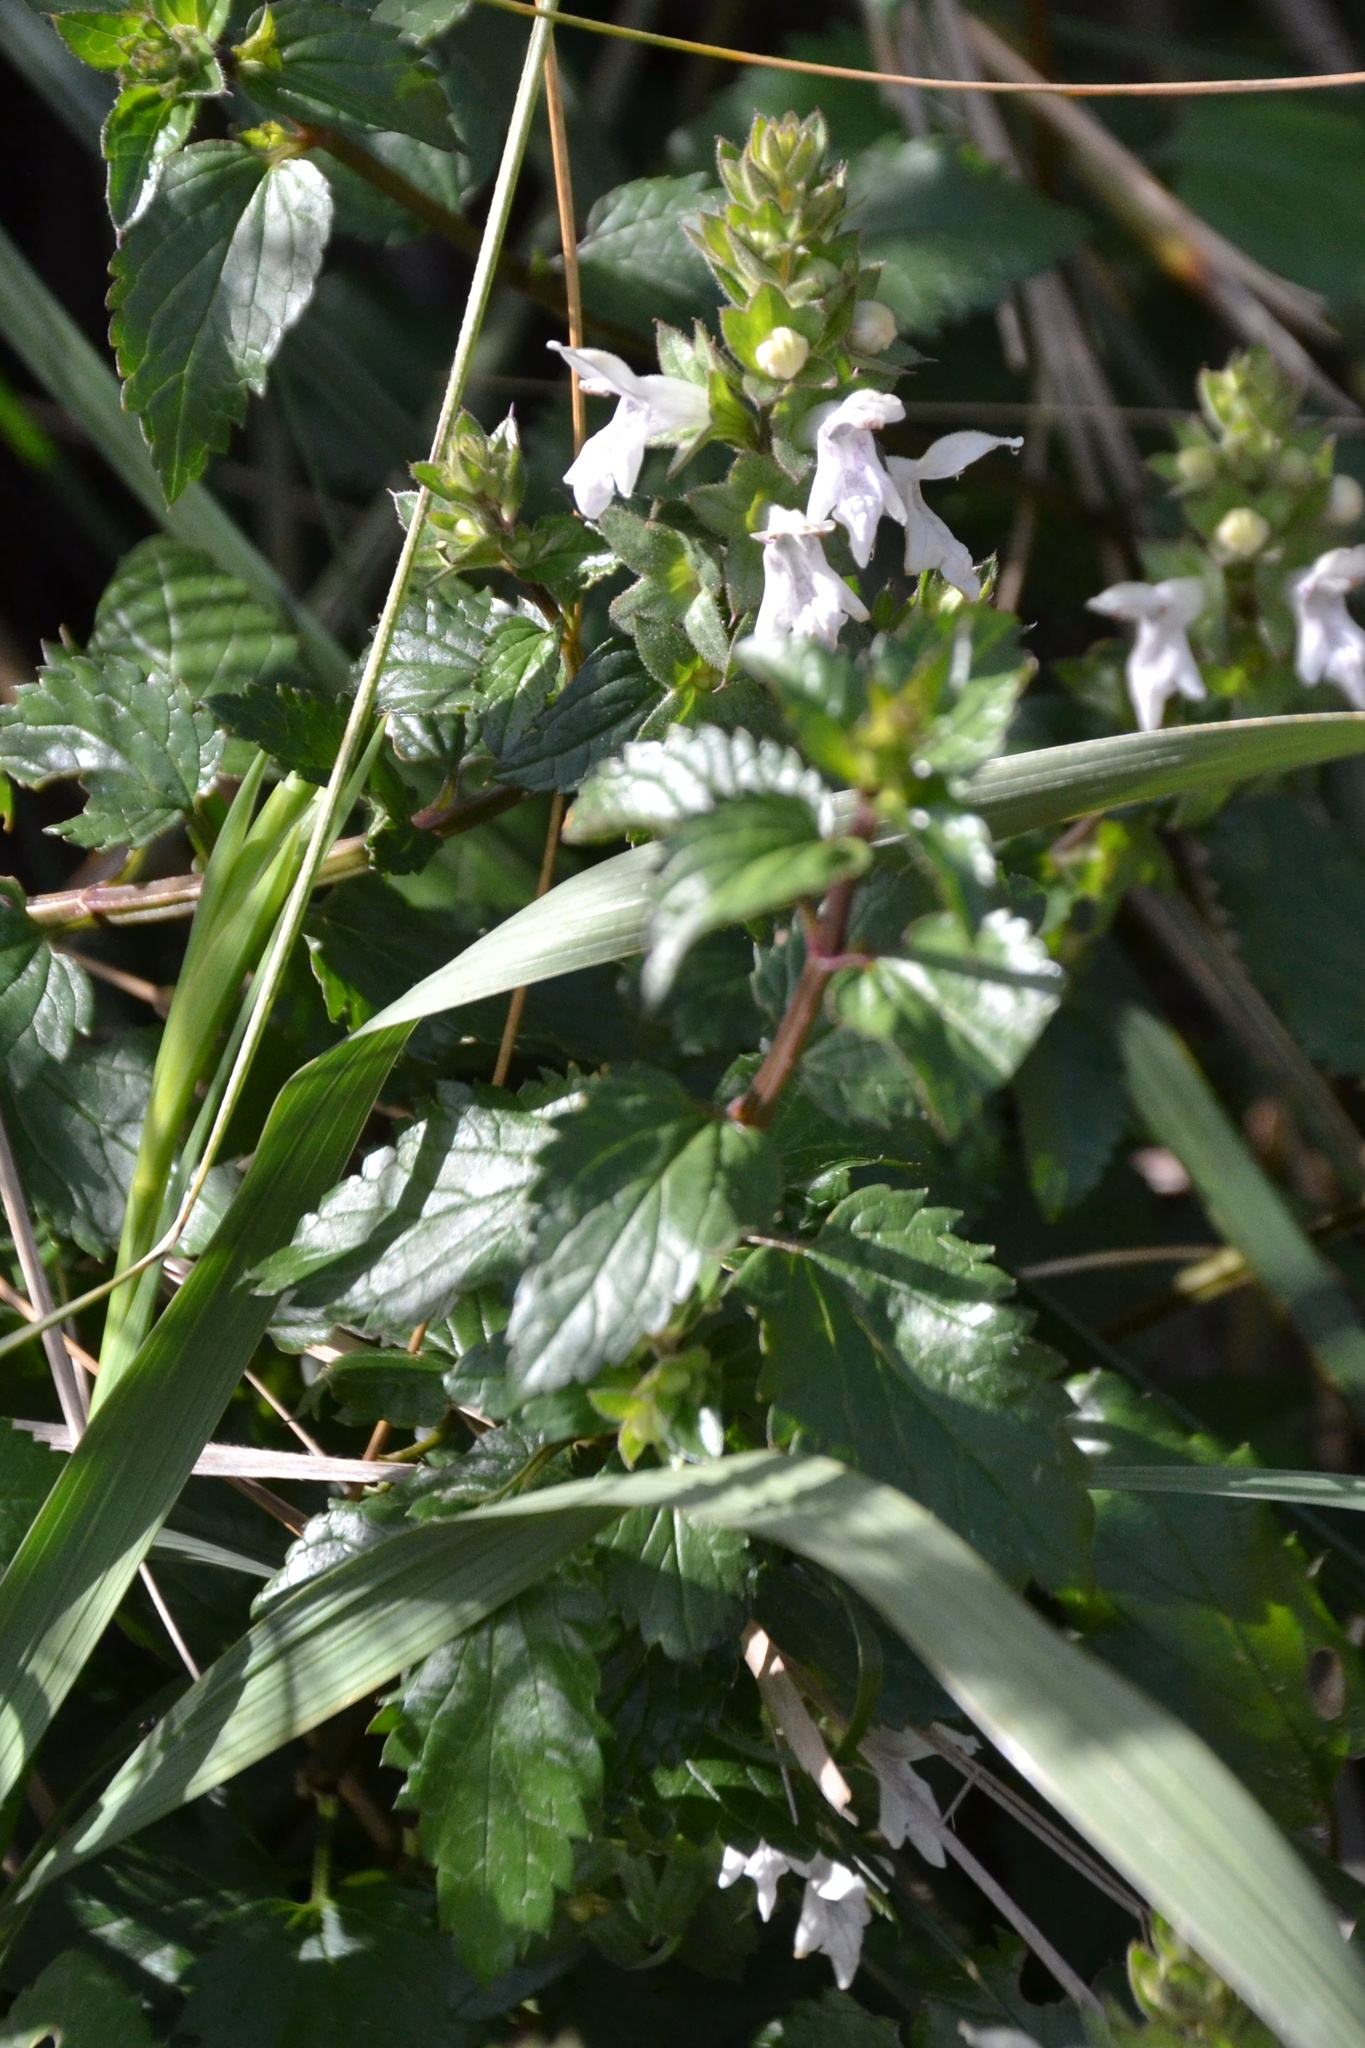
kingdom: Plantae
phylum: Tracheophyta
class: Magnoliopsida
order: Lamiales
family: Lamiaceae
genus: Prasium
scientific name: Prasium majus
